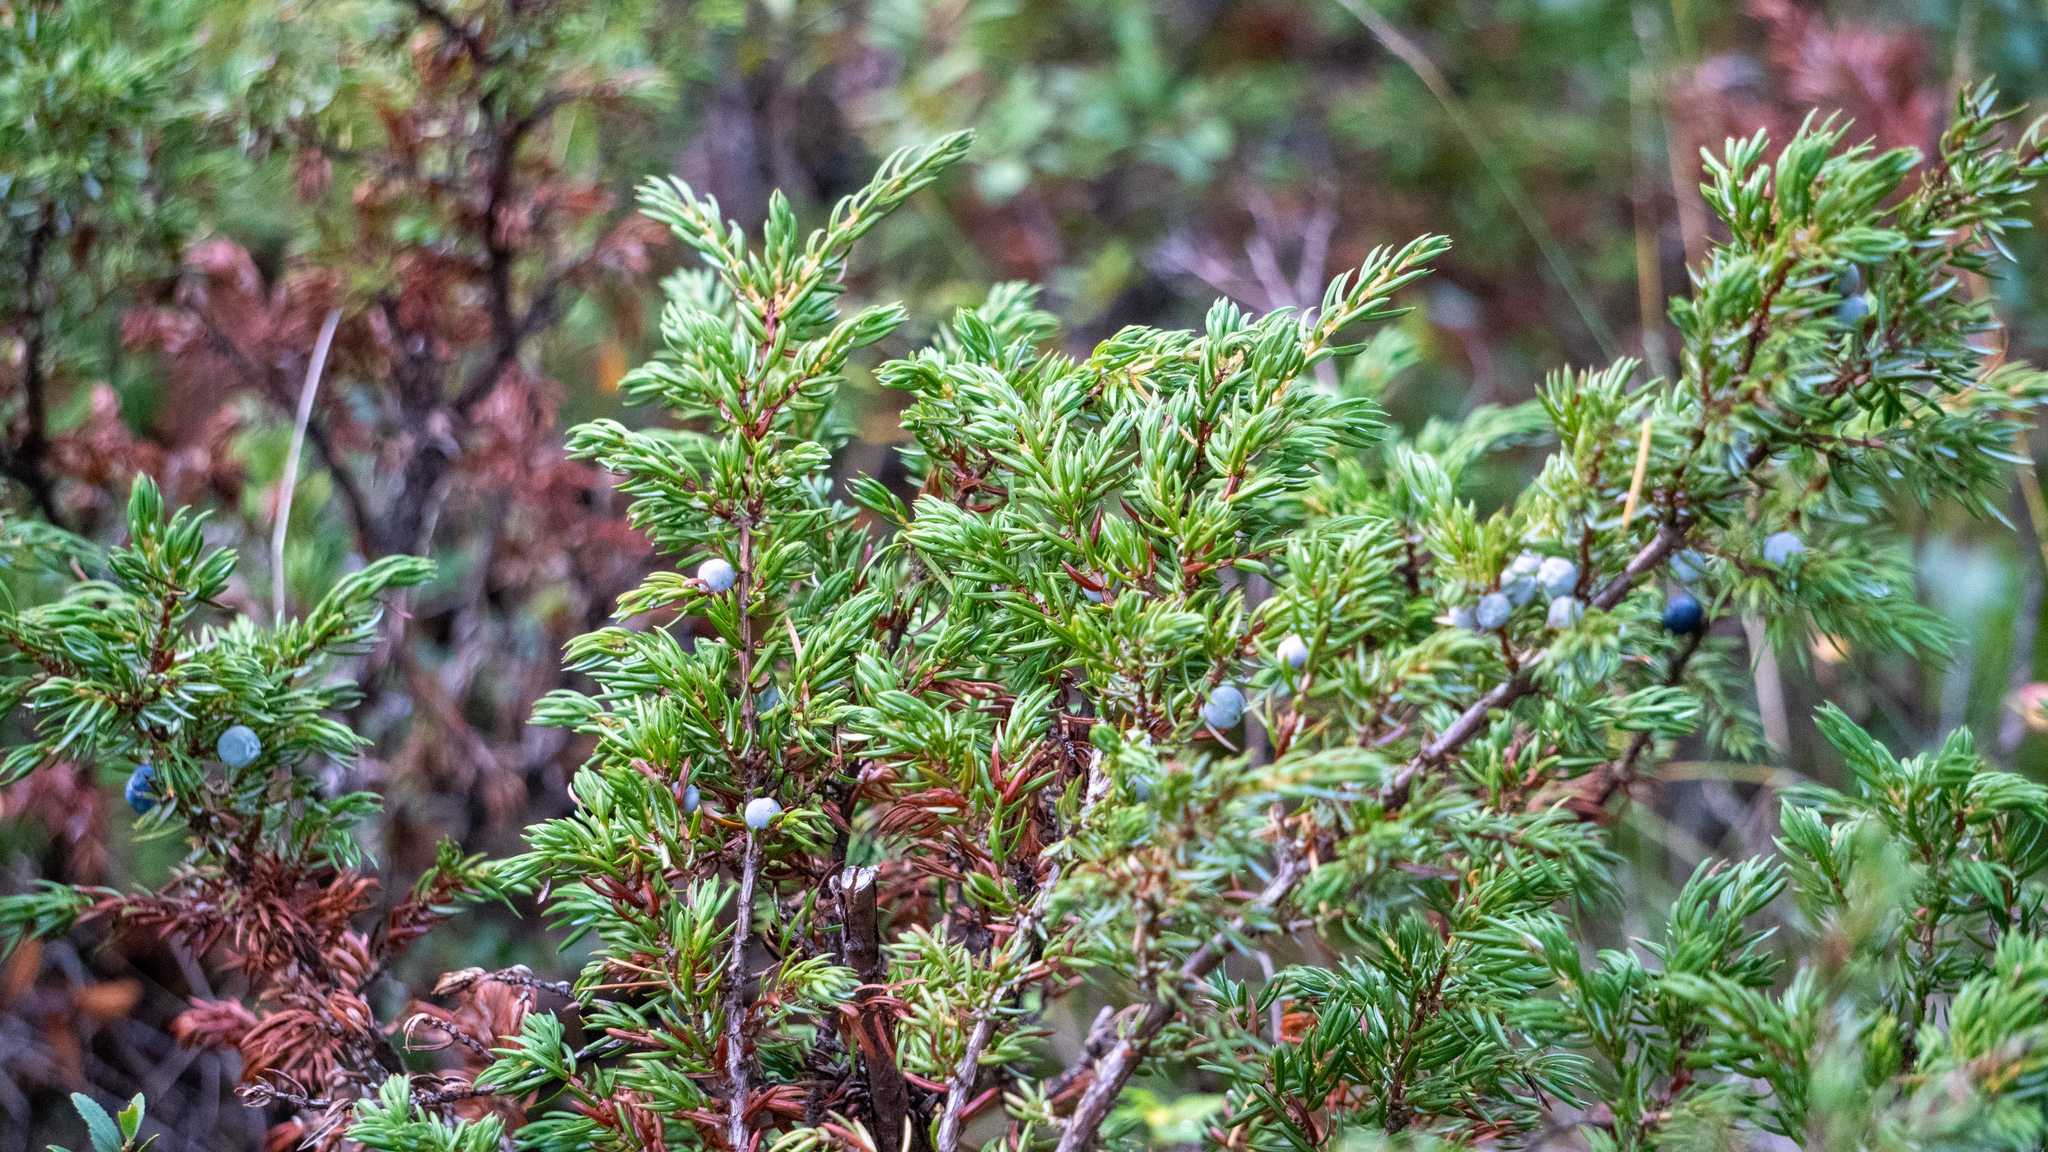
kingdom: Plantae
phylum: Tracheophyta
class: Pinopsida
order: Pinales
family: Cupressaceae
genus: Juniperus
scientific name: Juniperus communis
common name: Common juniper
